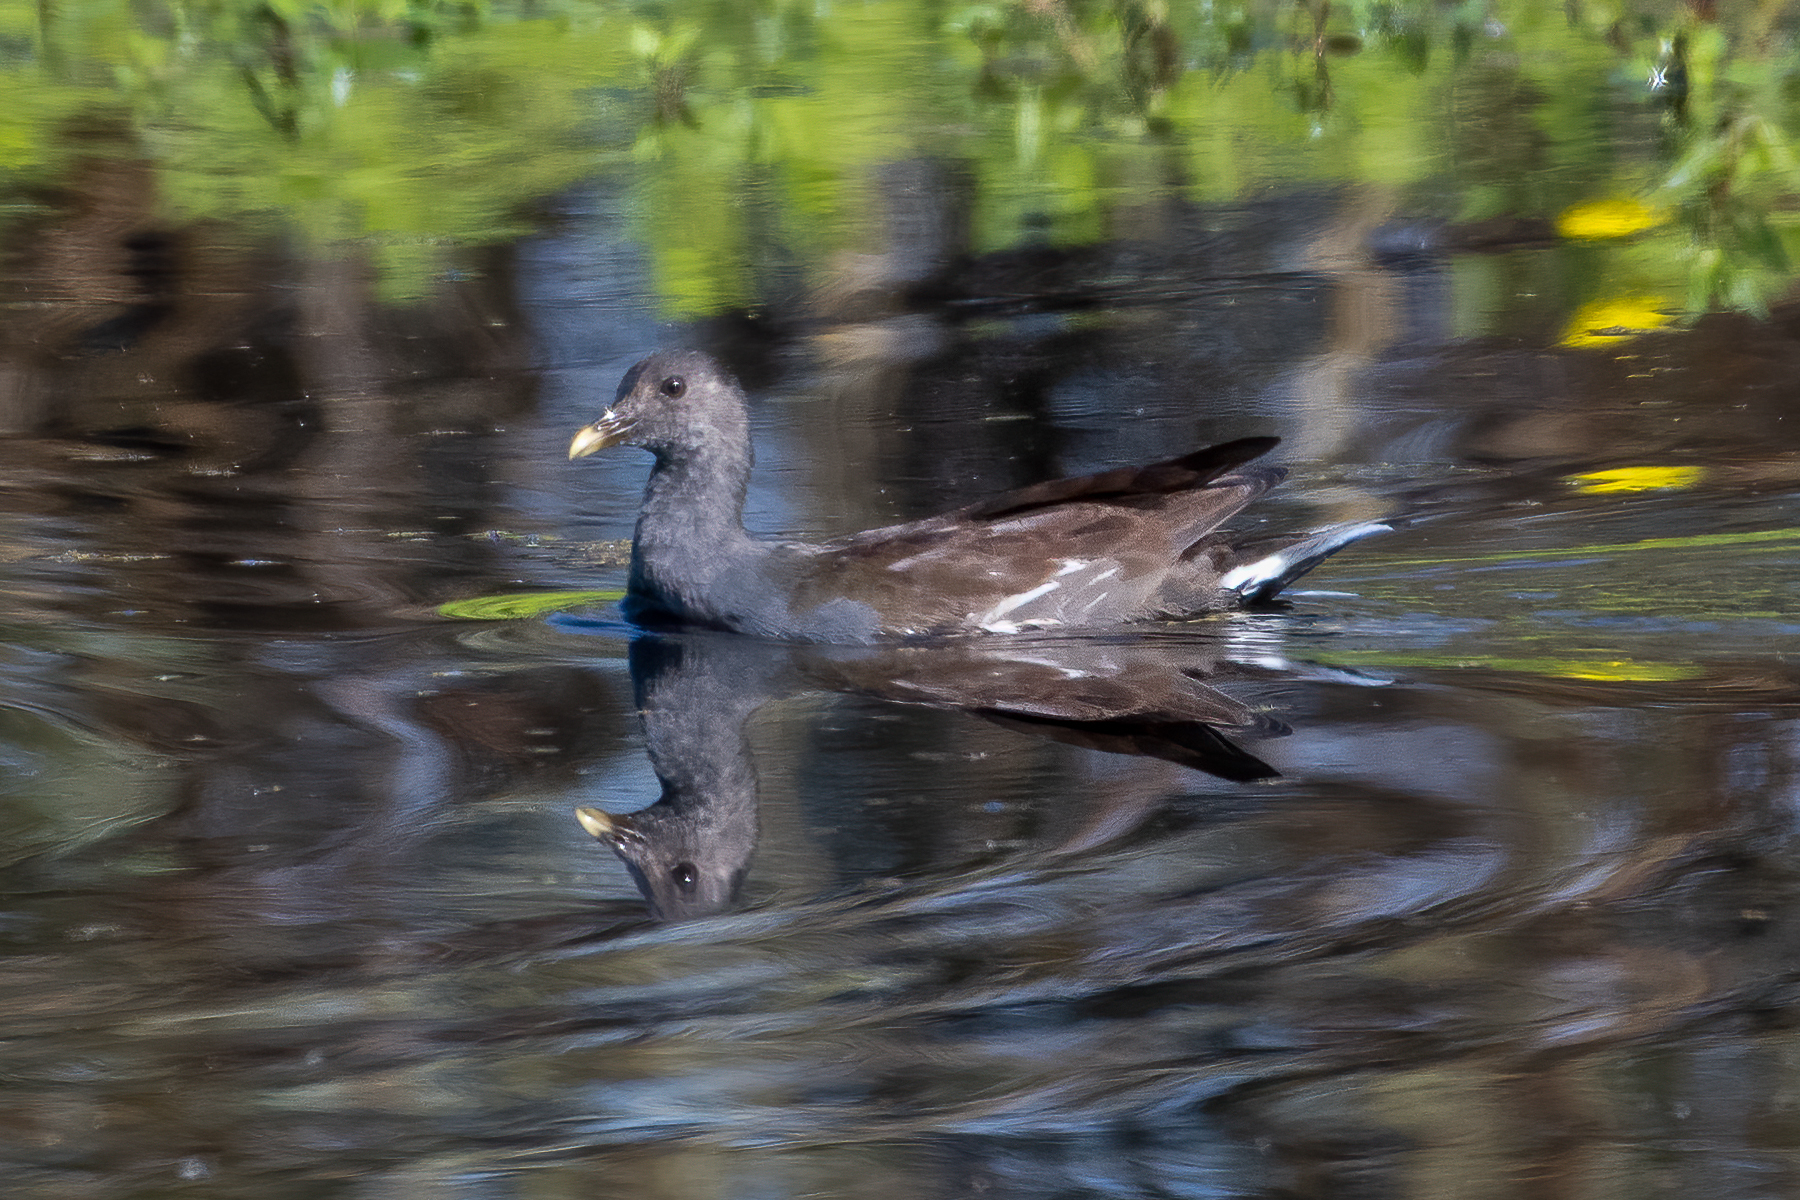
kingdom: Animalia
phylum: Chordata
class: Aves
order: Gruiformes
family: Rallidae
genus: Gallinula
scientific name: Gallinula chloropus
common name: Common moorhen
